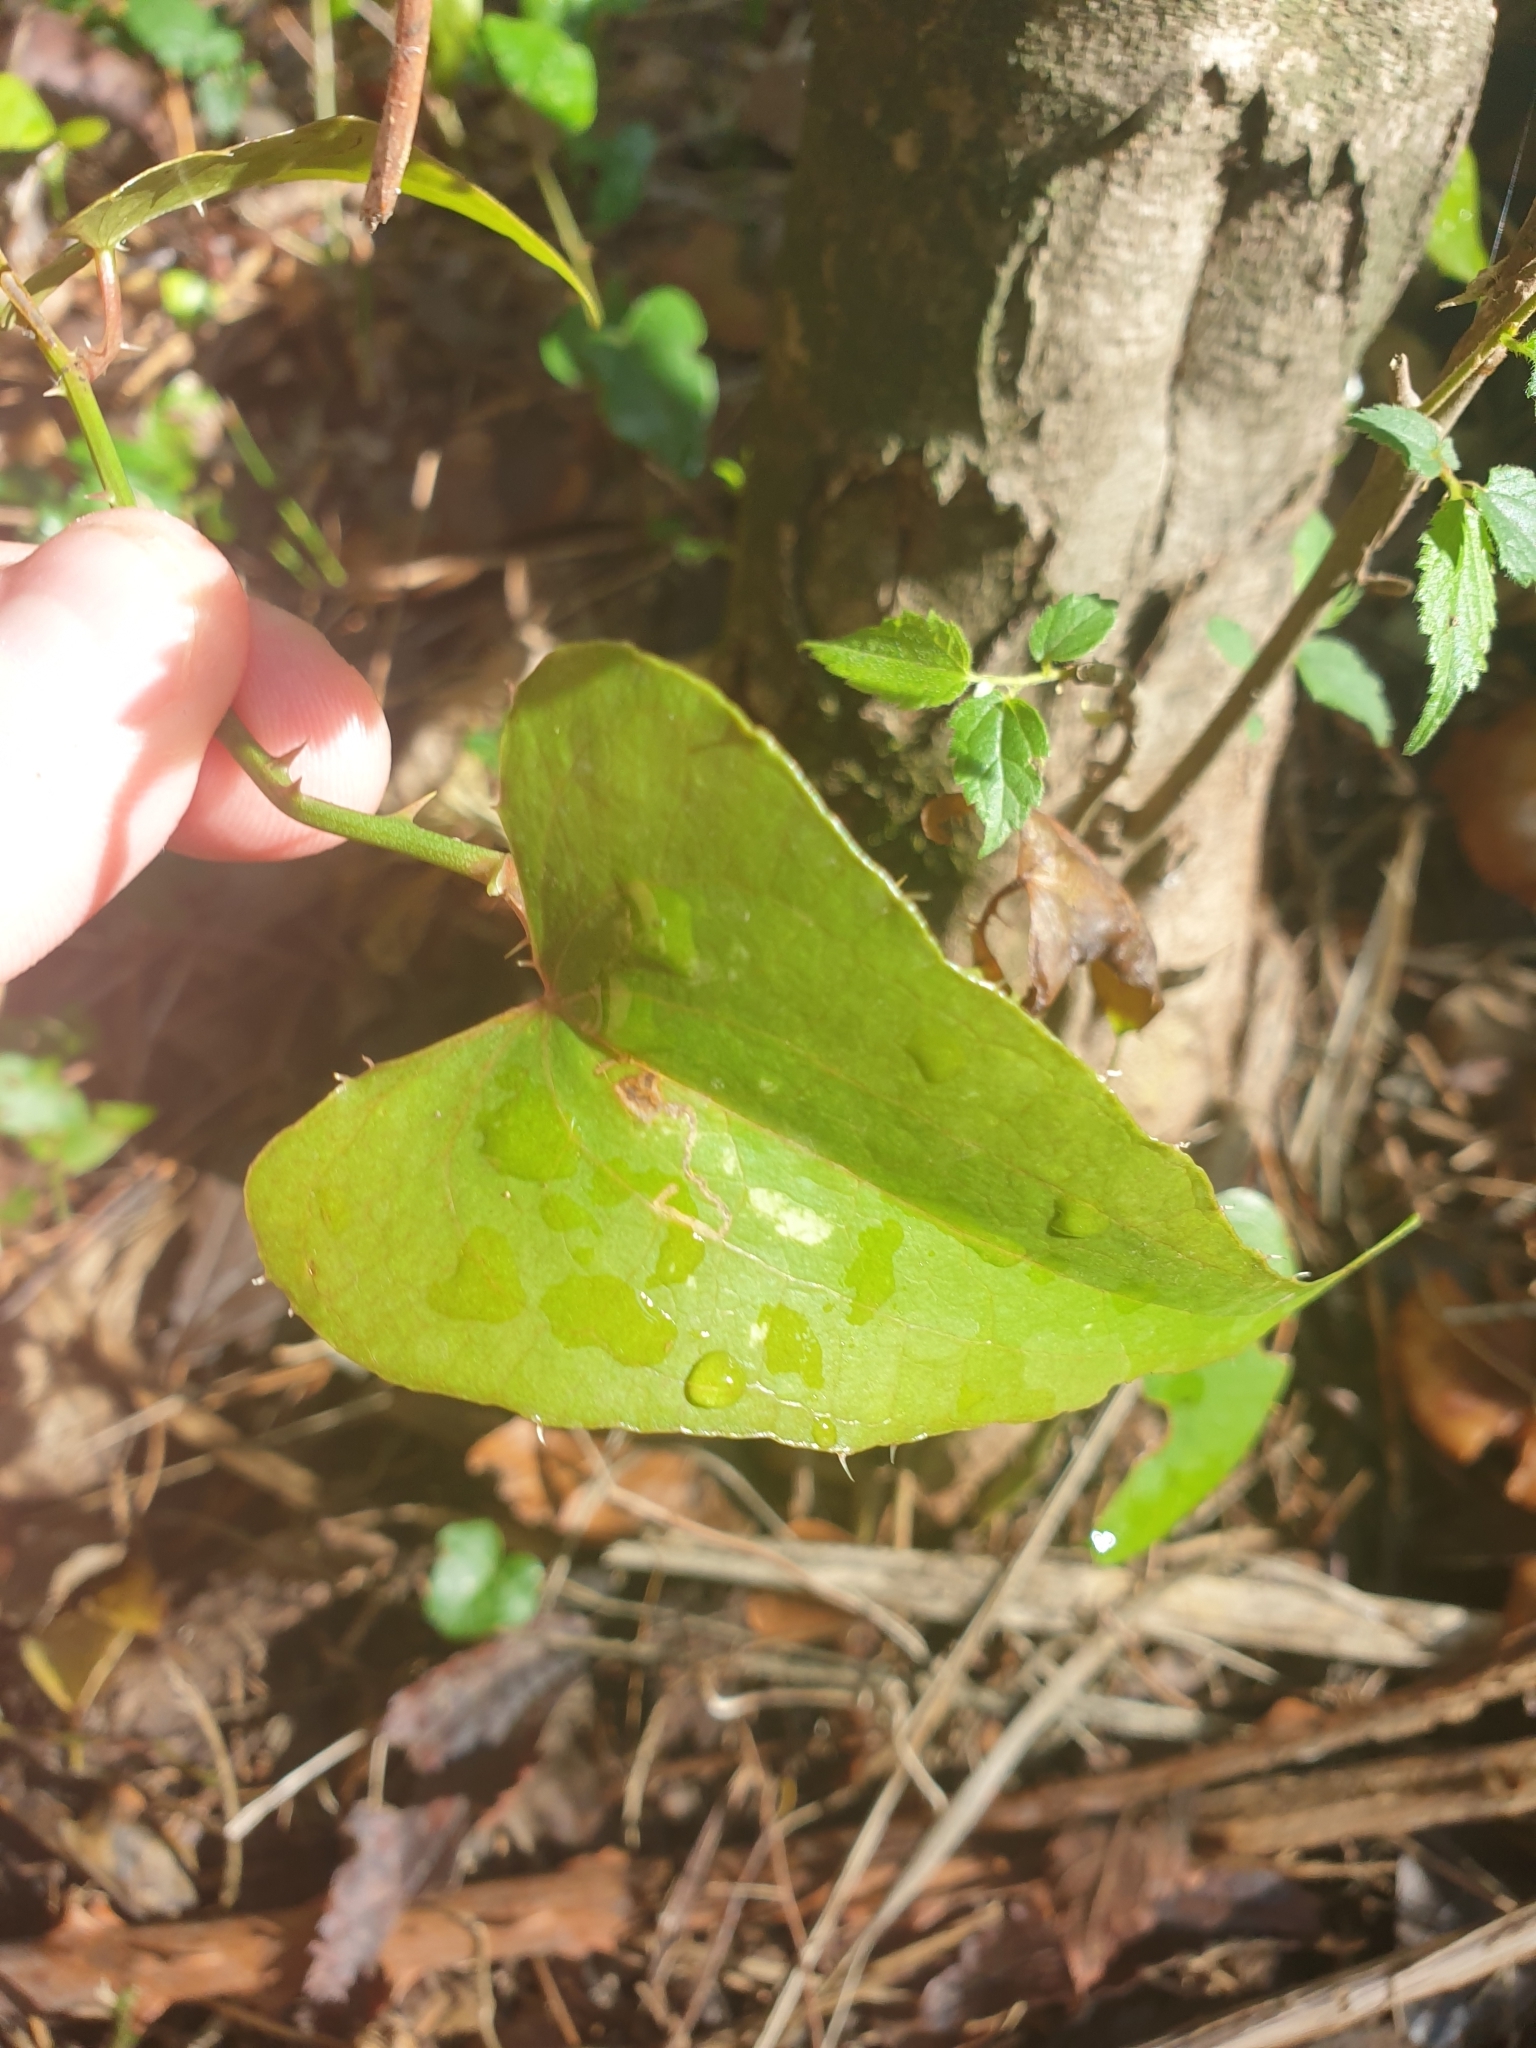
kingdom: Plantae
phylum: Tracheophyta
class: Liliopsida
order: Liliales
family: Smilacaceae
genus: Smilax
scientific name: Smilax aspera
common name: Common smilax
